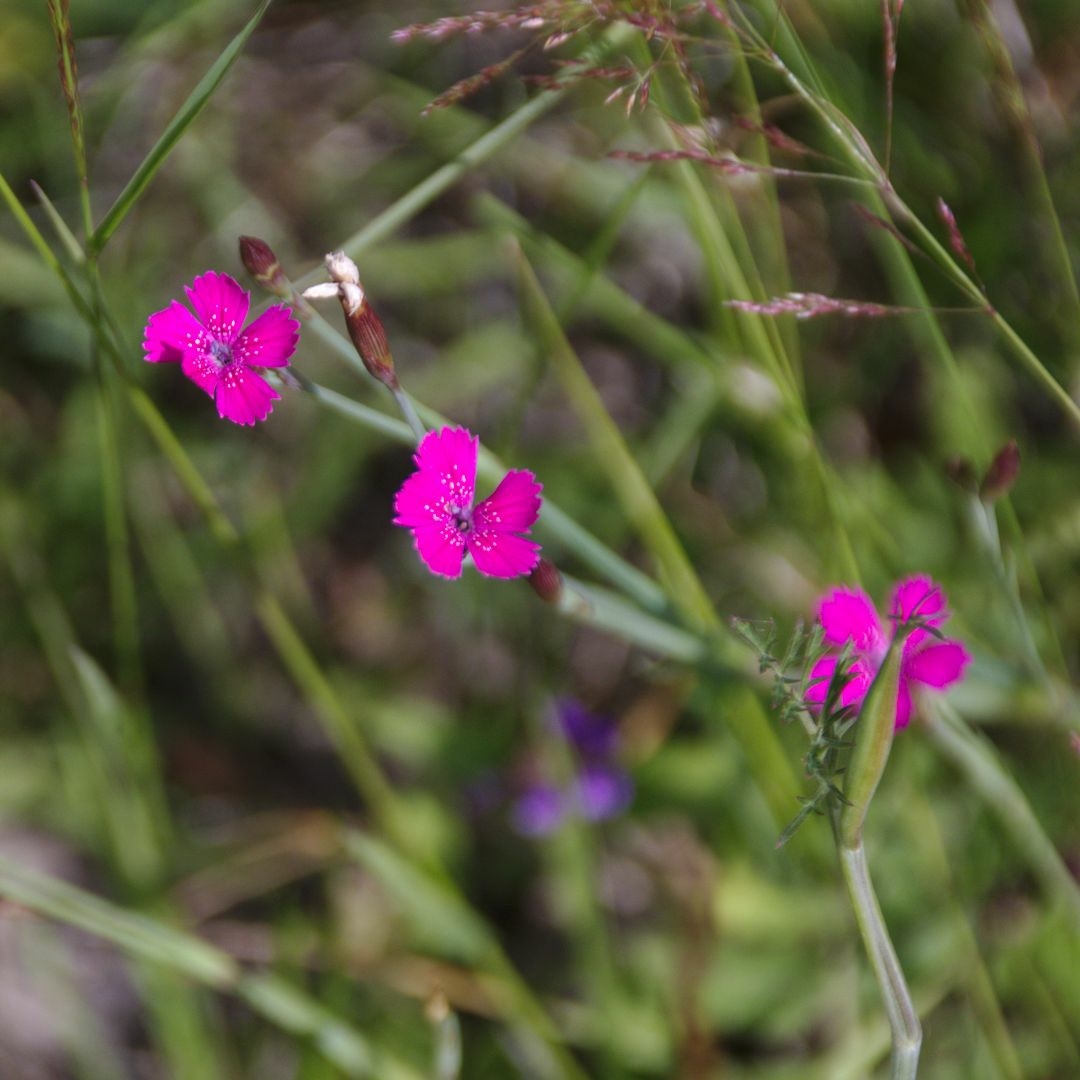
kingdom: Plantae
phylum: Tracheophyta
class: Magnoliopsida
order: Caryophyllales
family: Caryophyllaceae
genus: Dianthus
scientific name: Dianthus deltoides
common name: Maiden pink
